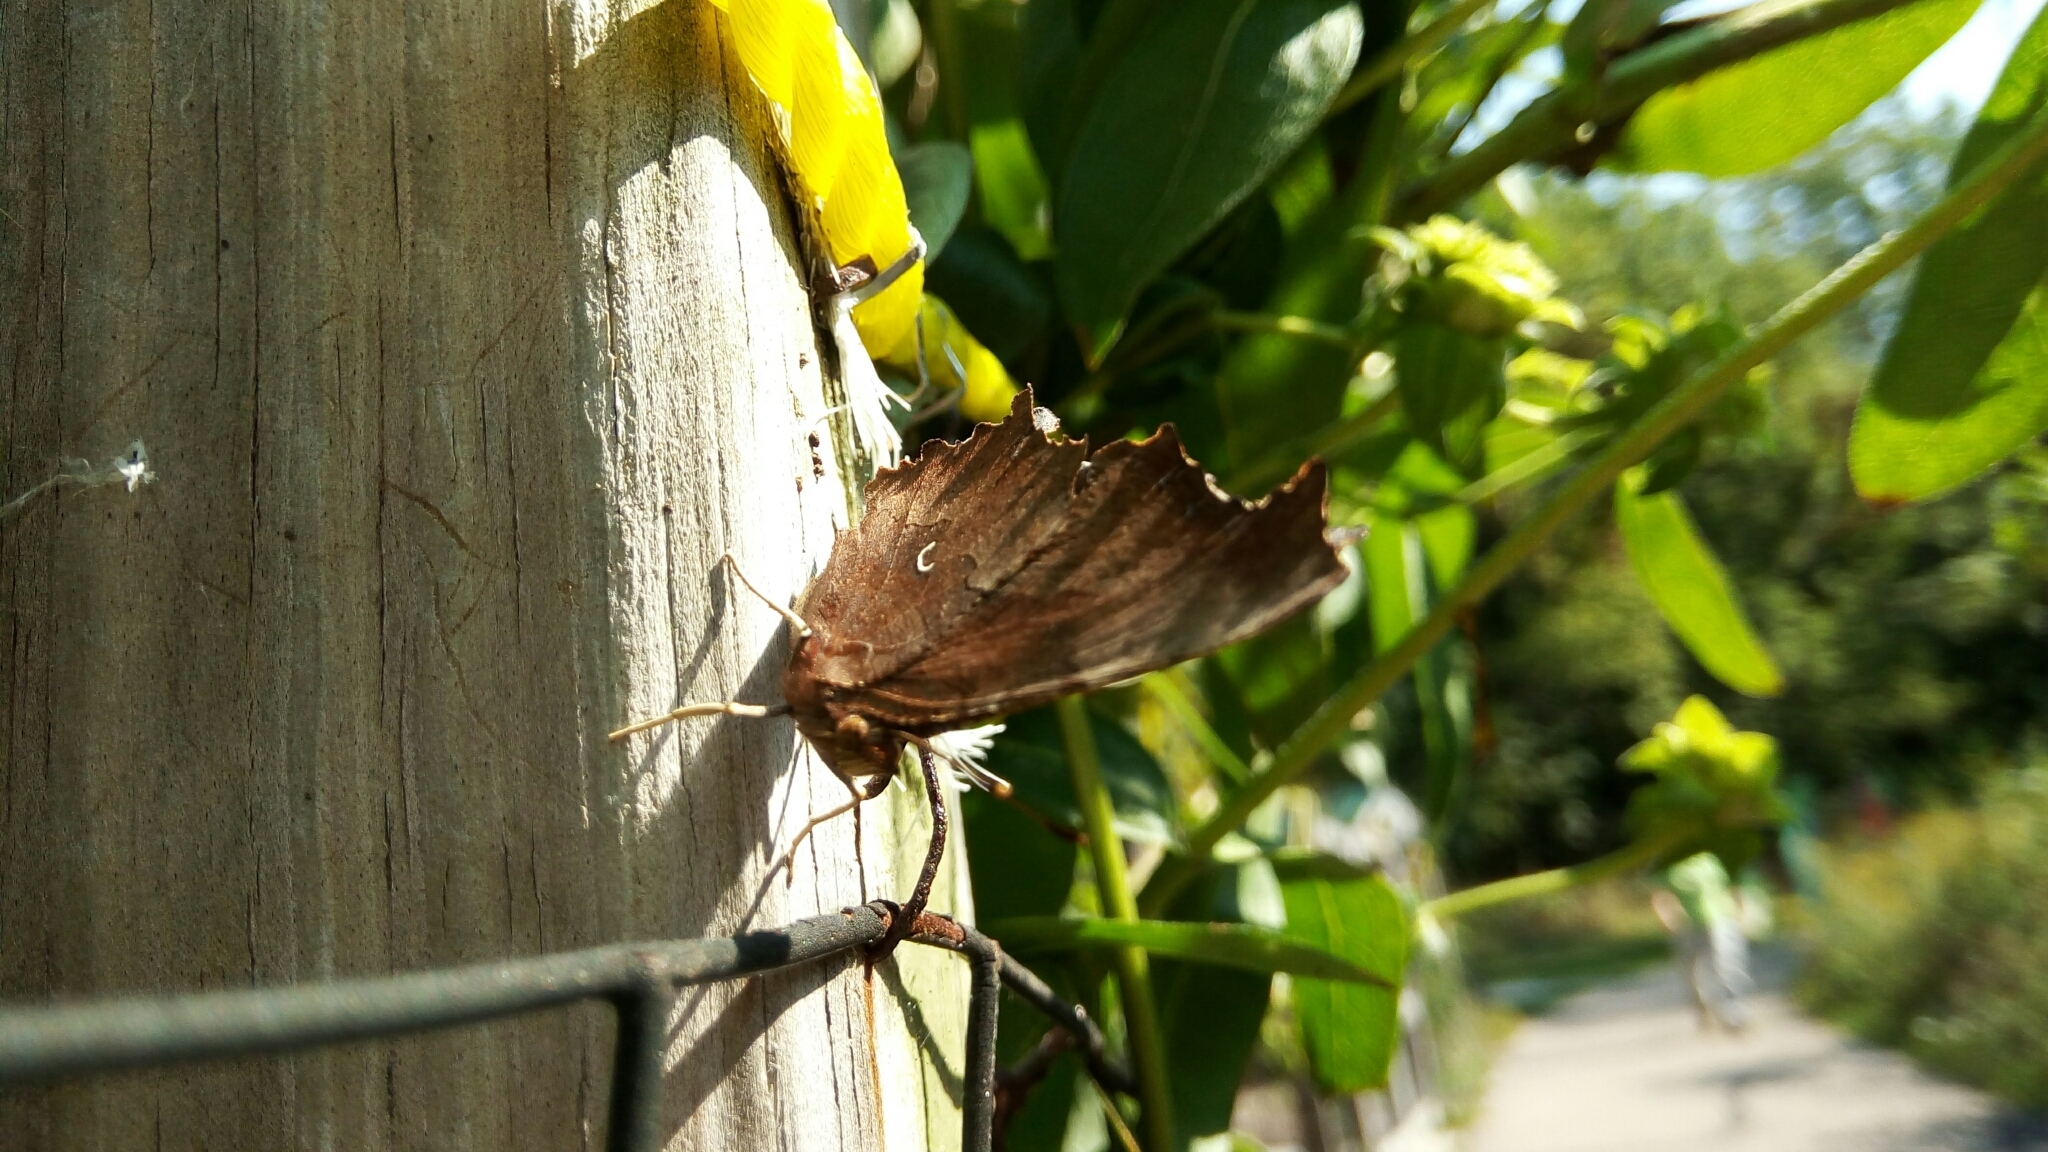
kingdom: Animalia
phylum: Arthropoda
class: Insecta
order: Lepidoptera
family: Nymphalidae
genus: Polygonia
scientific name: Polygonia comma
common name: Eastern comma
